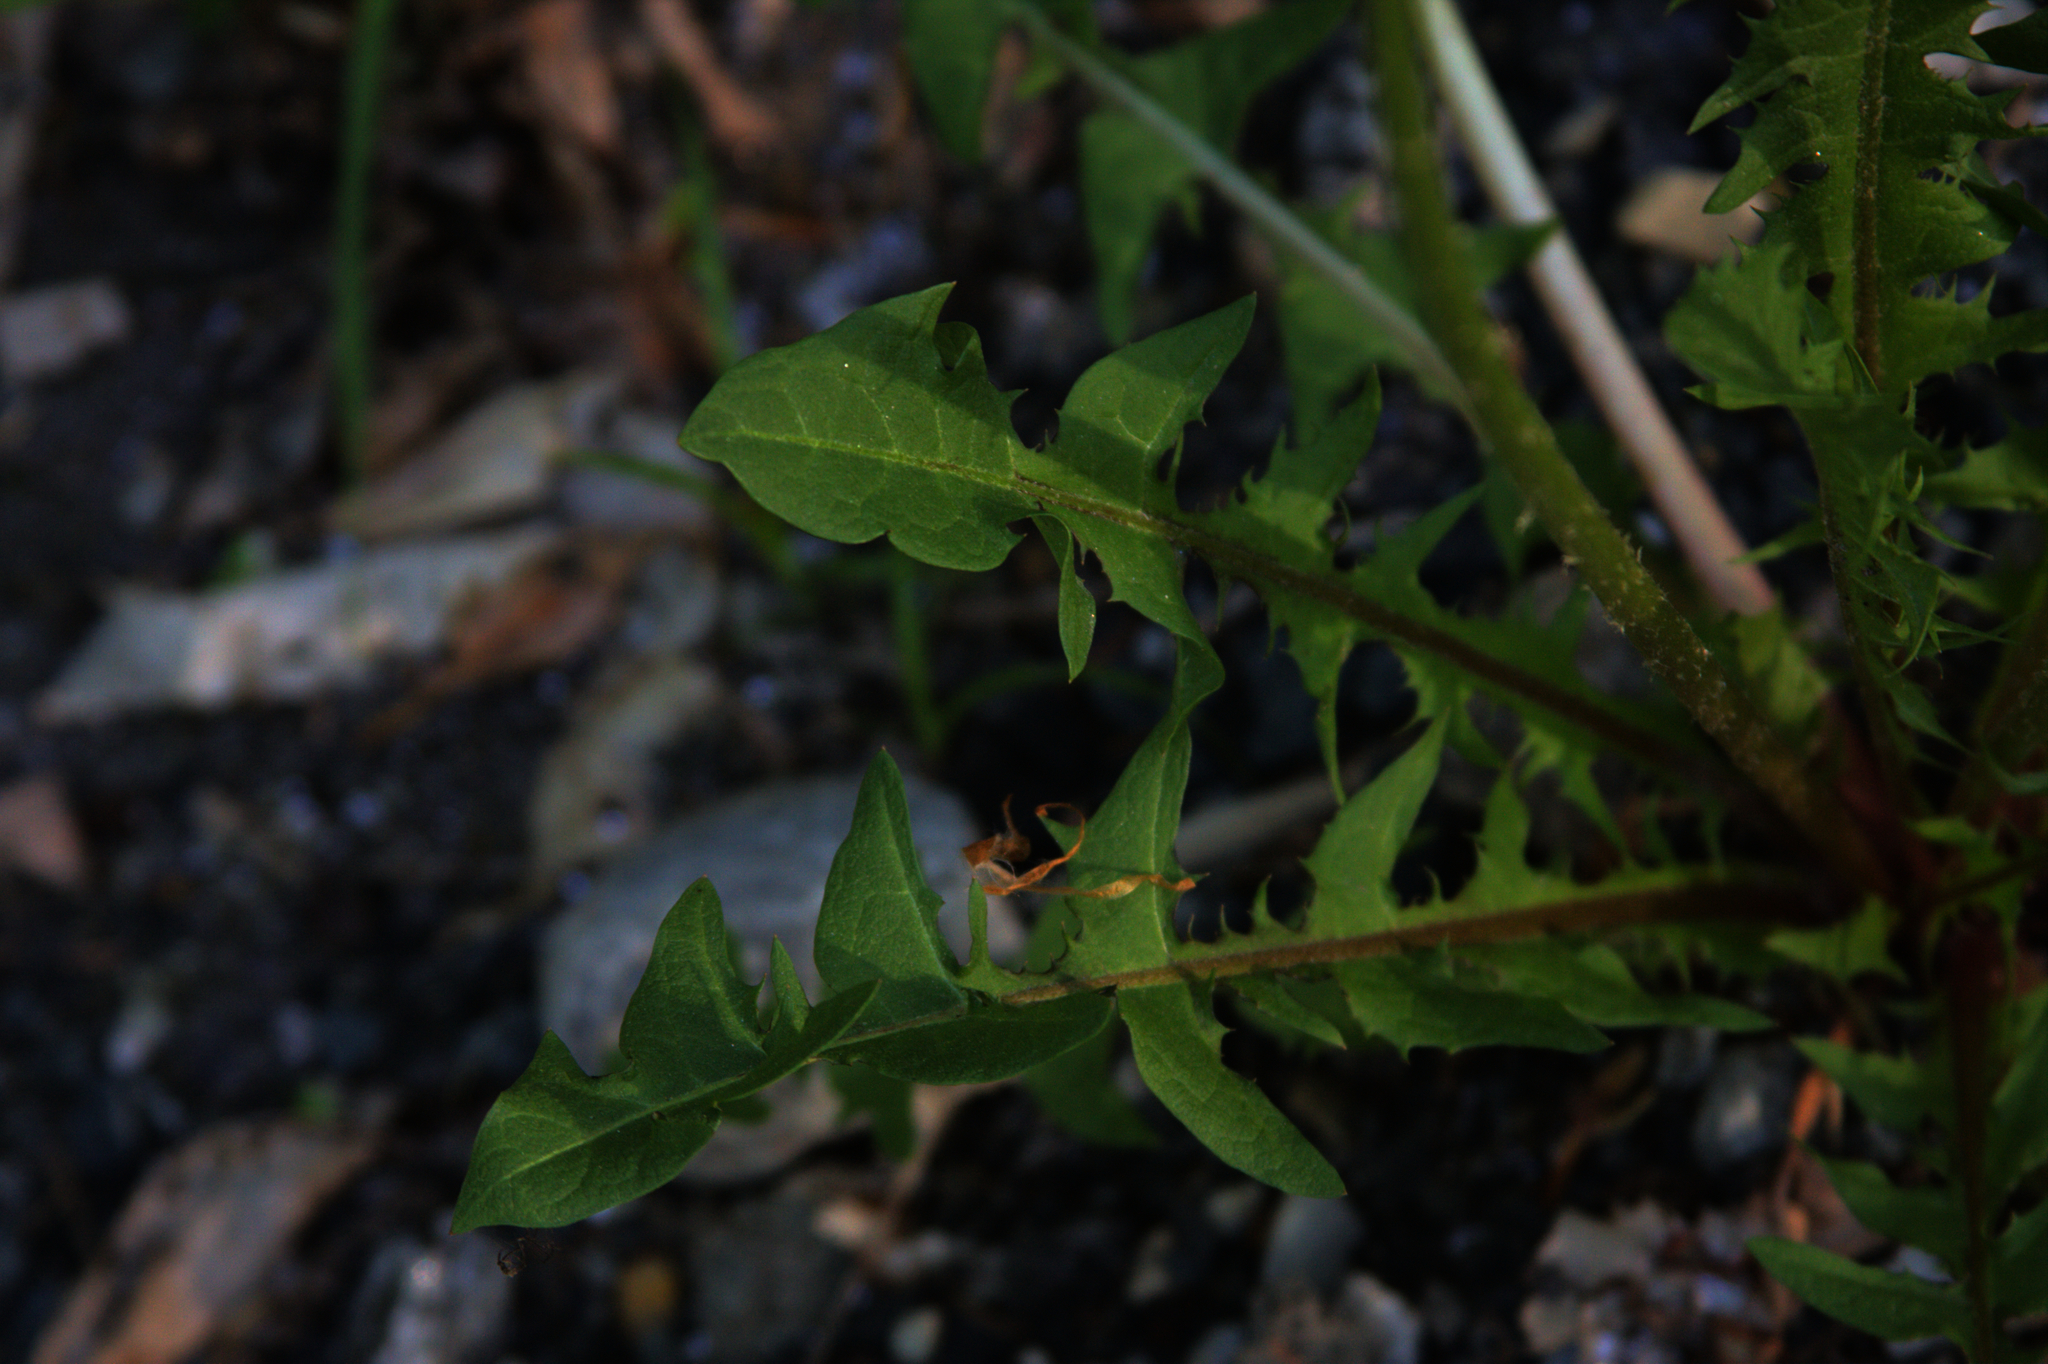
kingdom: Plantae
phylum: Tracheophyta
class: Magnoliopsida
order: Asterales
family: Asteraceae
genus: Taraxacum
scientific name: Taraxacum officinale
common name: Common dandelion
